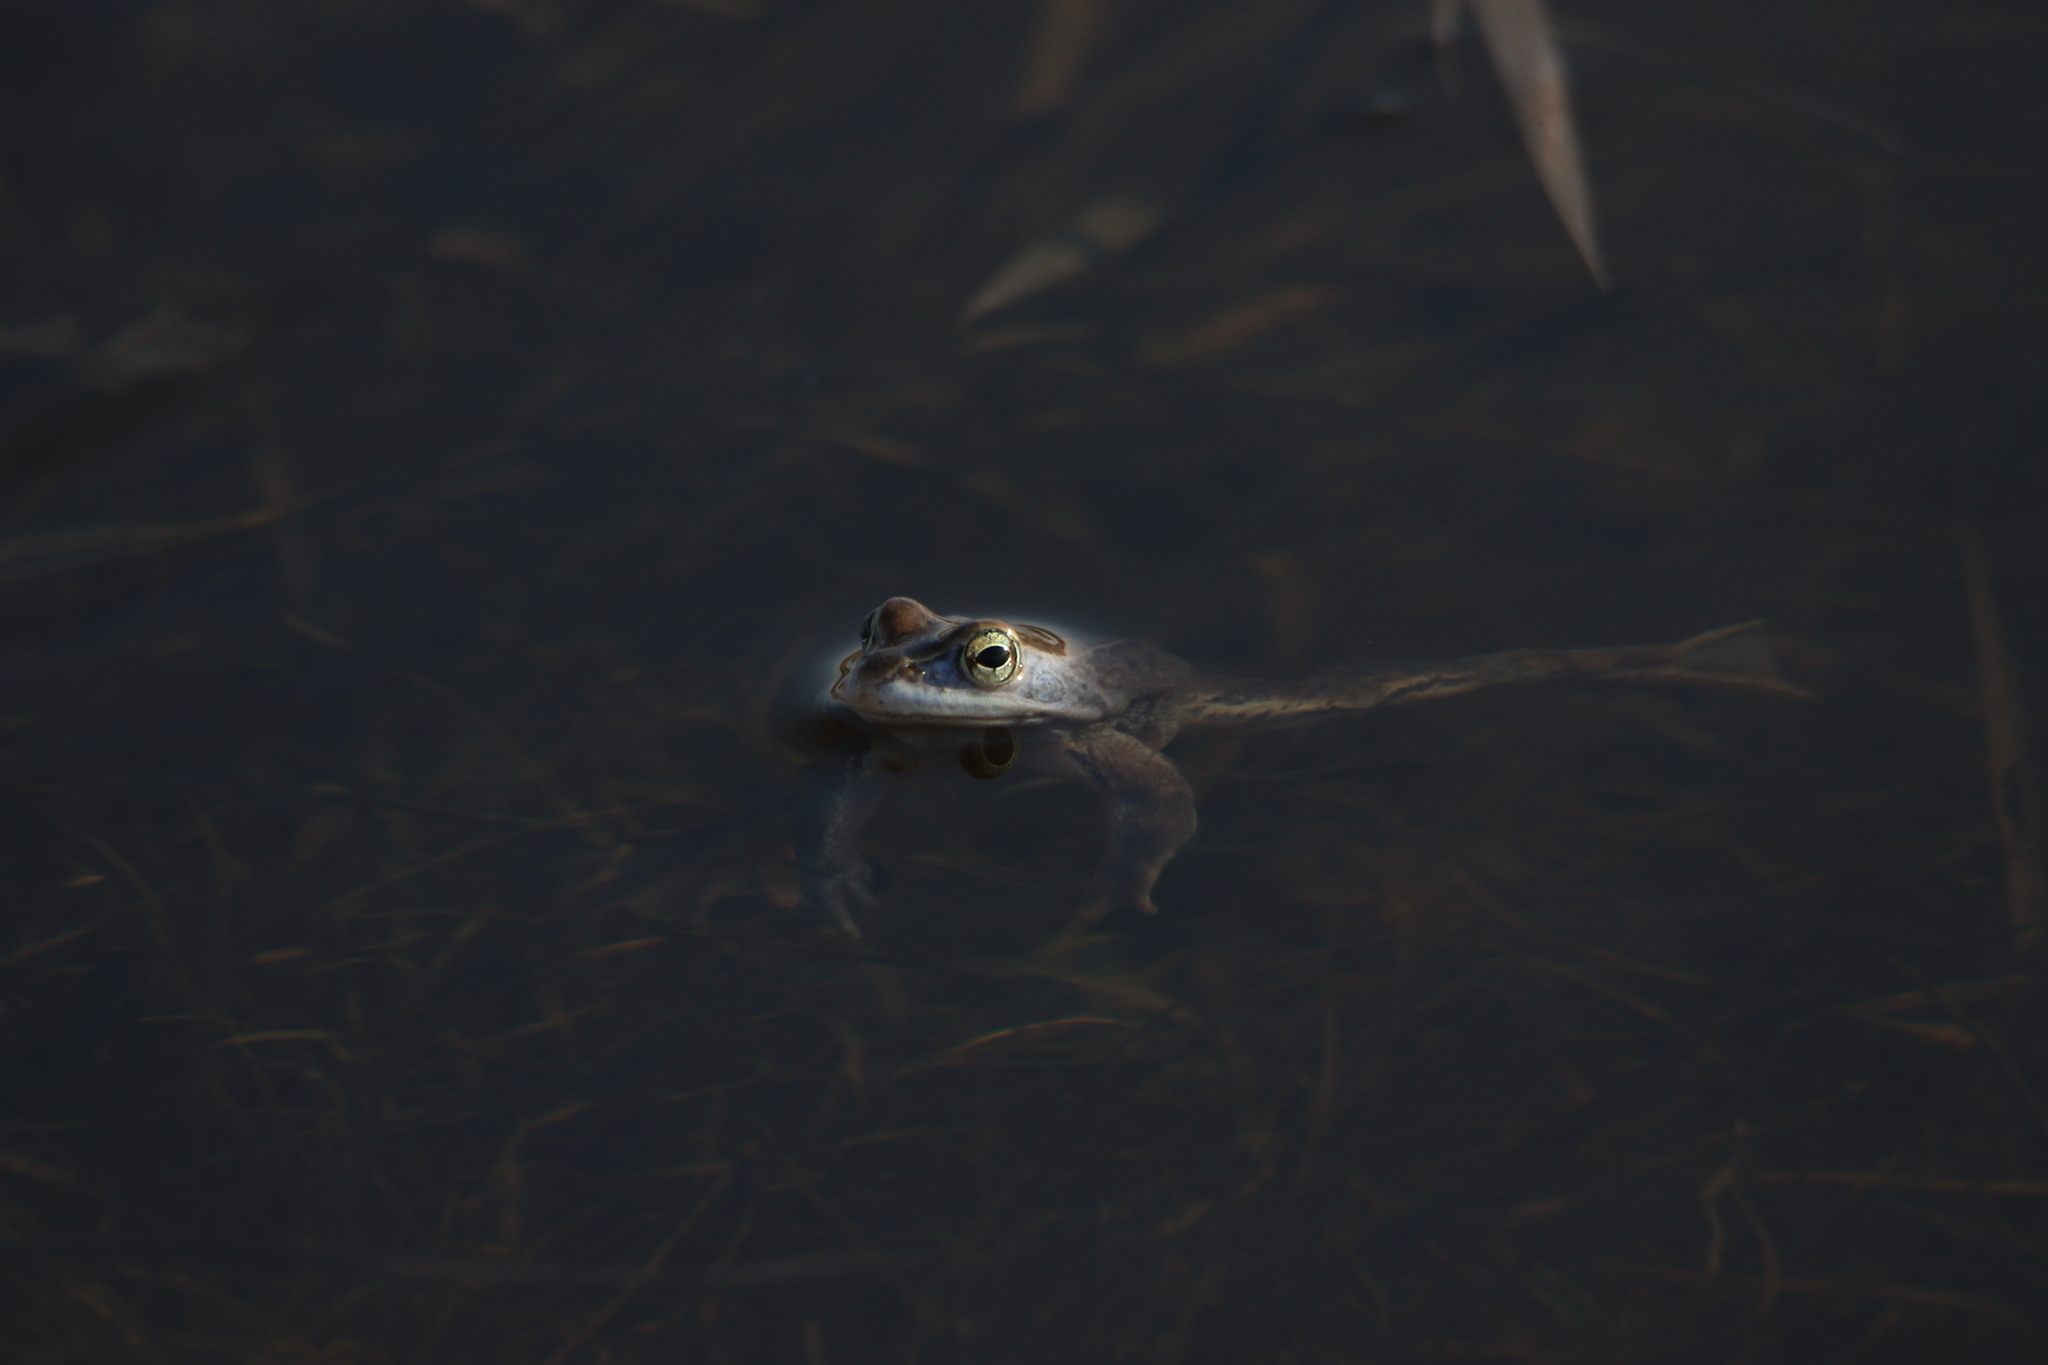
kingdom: Animalia
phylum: Chordata
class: Amphibia
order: Anura
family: Ranidae
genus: Rana
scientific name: Rana arvalis
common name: Moor frog
